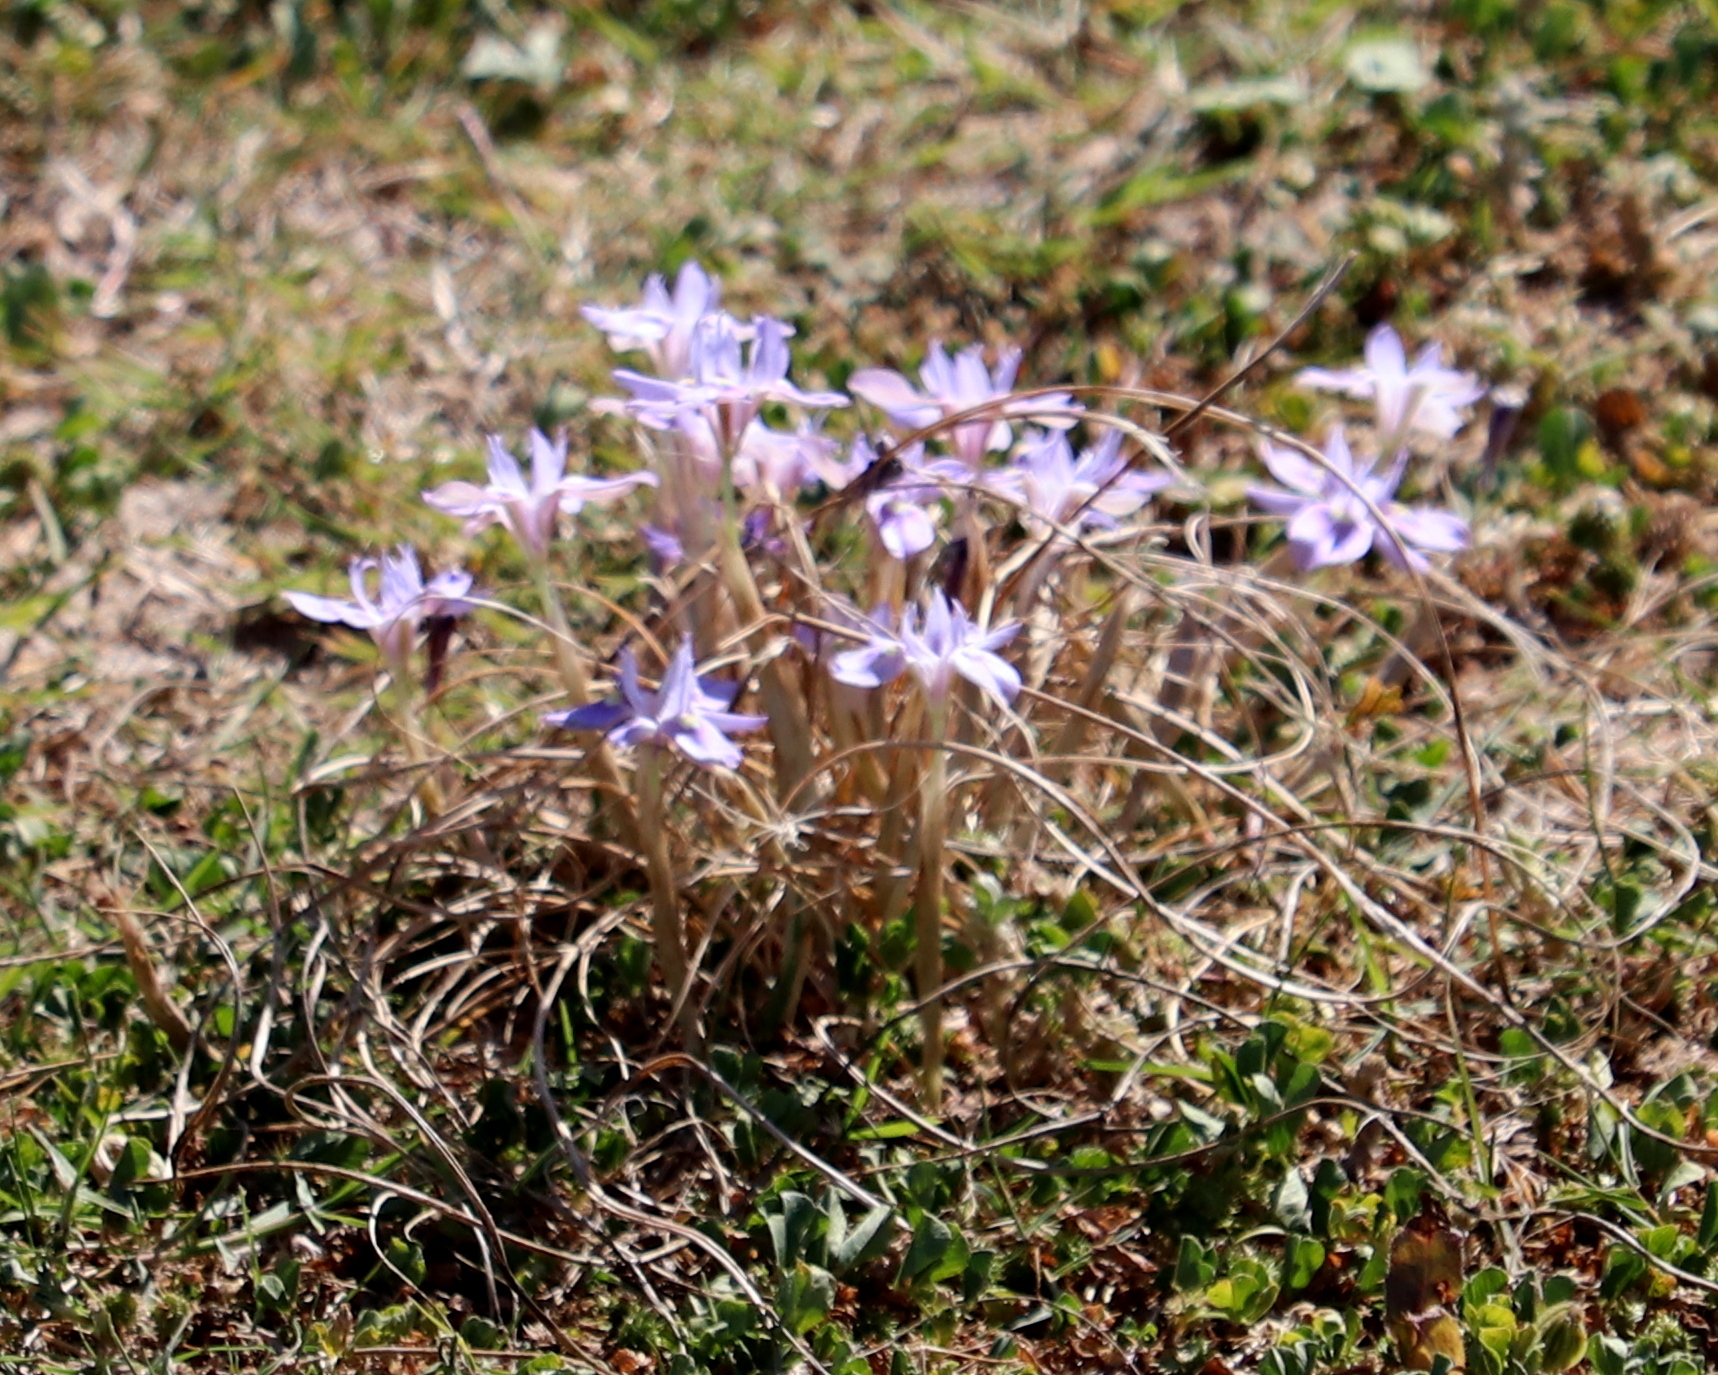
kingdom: Plantae
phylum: Tracheophyta
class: Liliopsida
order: Asparagales
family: Iridaceae
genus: Moraea
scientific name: Moraea australis
